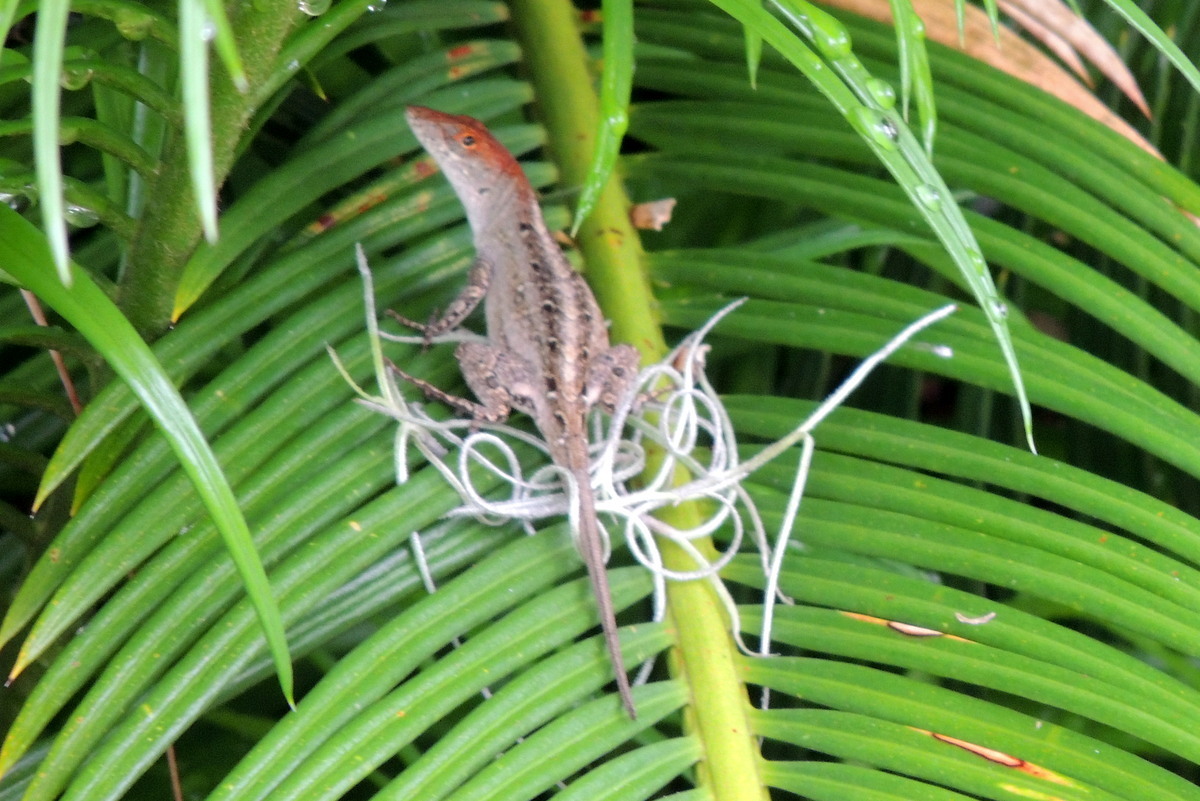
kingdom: Animalia
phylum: Chordata
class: Squamata
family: Dactyloidae
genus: Anolis
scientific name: Anolis sagrei
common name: Brown anole
